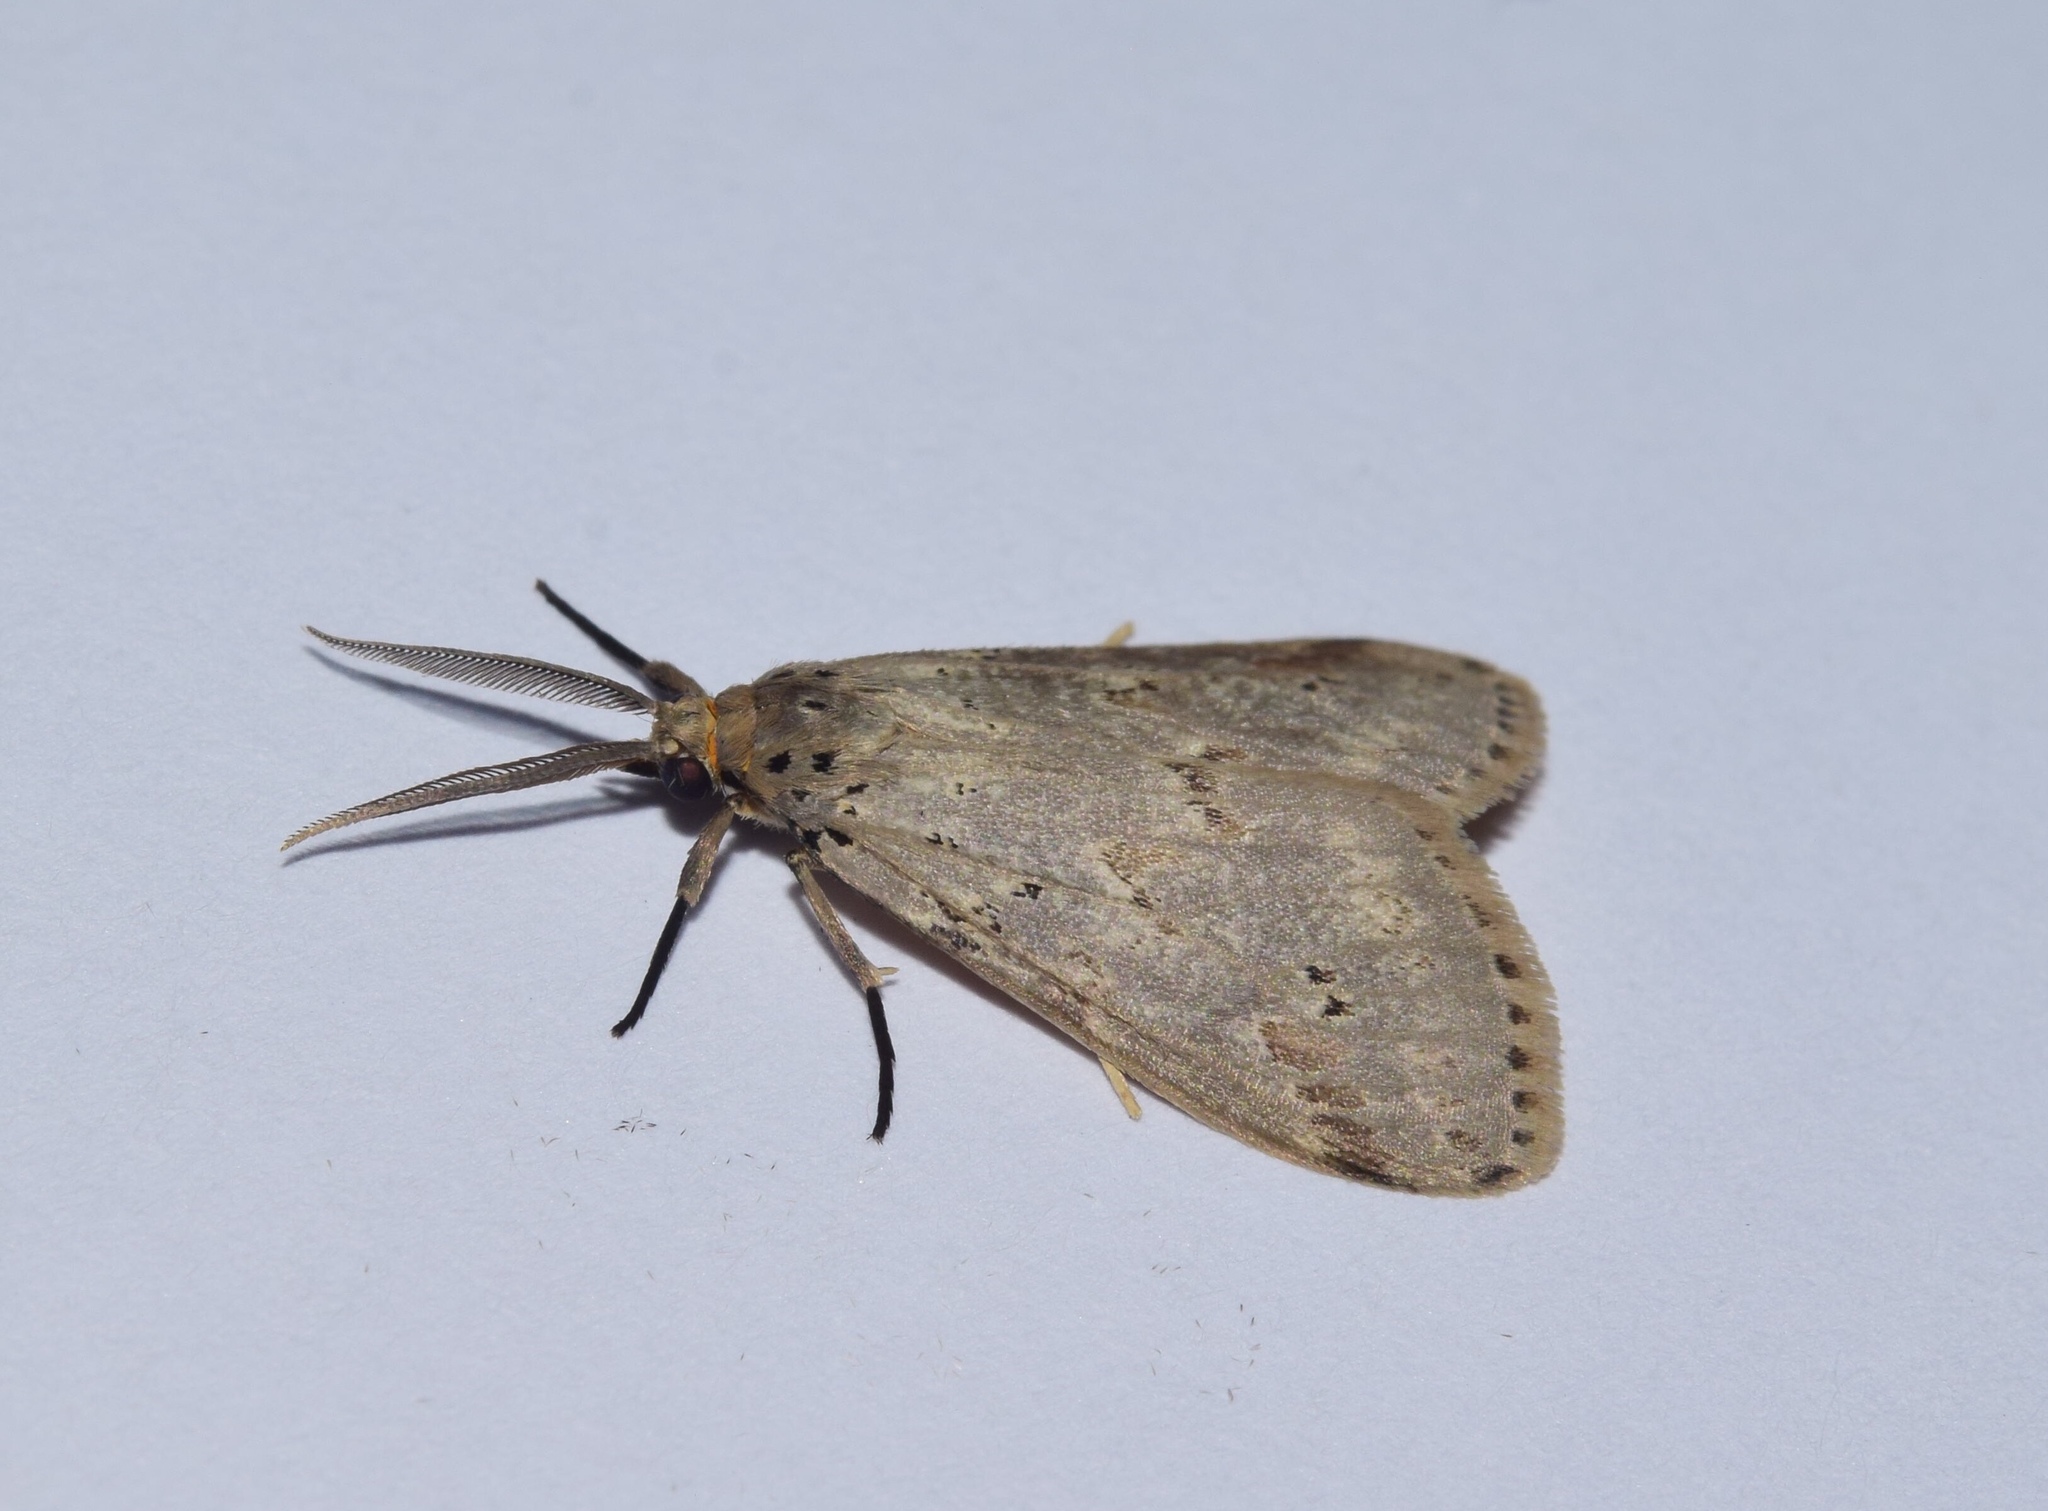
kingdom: Animalia
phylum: Arthropoda
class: Insecta
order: Lepidoptera
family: Erebidae
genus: Galtara
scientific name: Galtara rostrata
